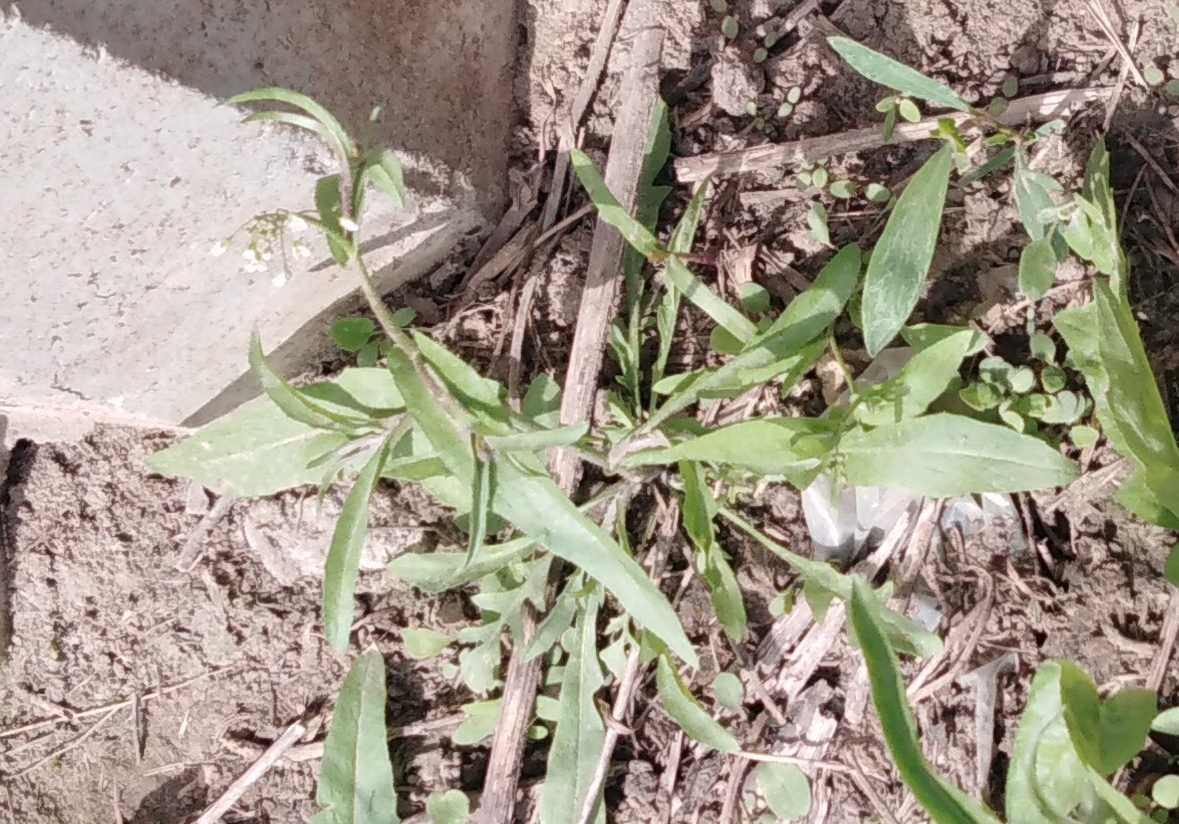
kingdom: Plantae
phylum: Tracheophyta
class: Magnoliopsida
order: Brassicales
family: Brassicaceae
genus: Berteroa
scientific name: Berteroa incana
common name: Hoary alison
